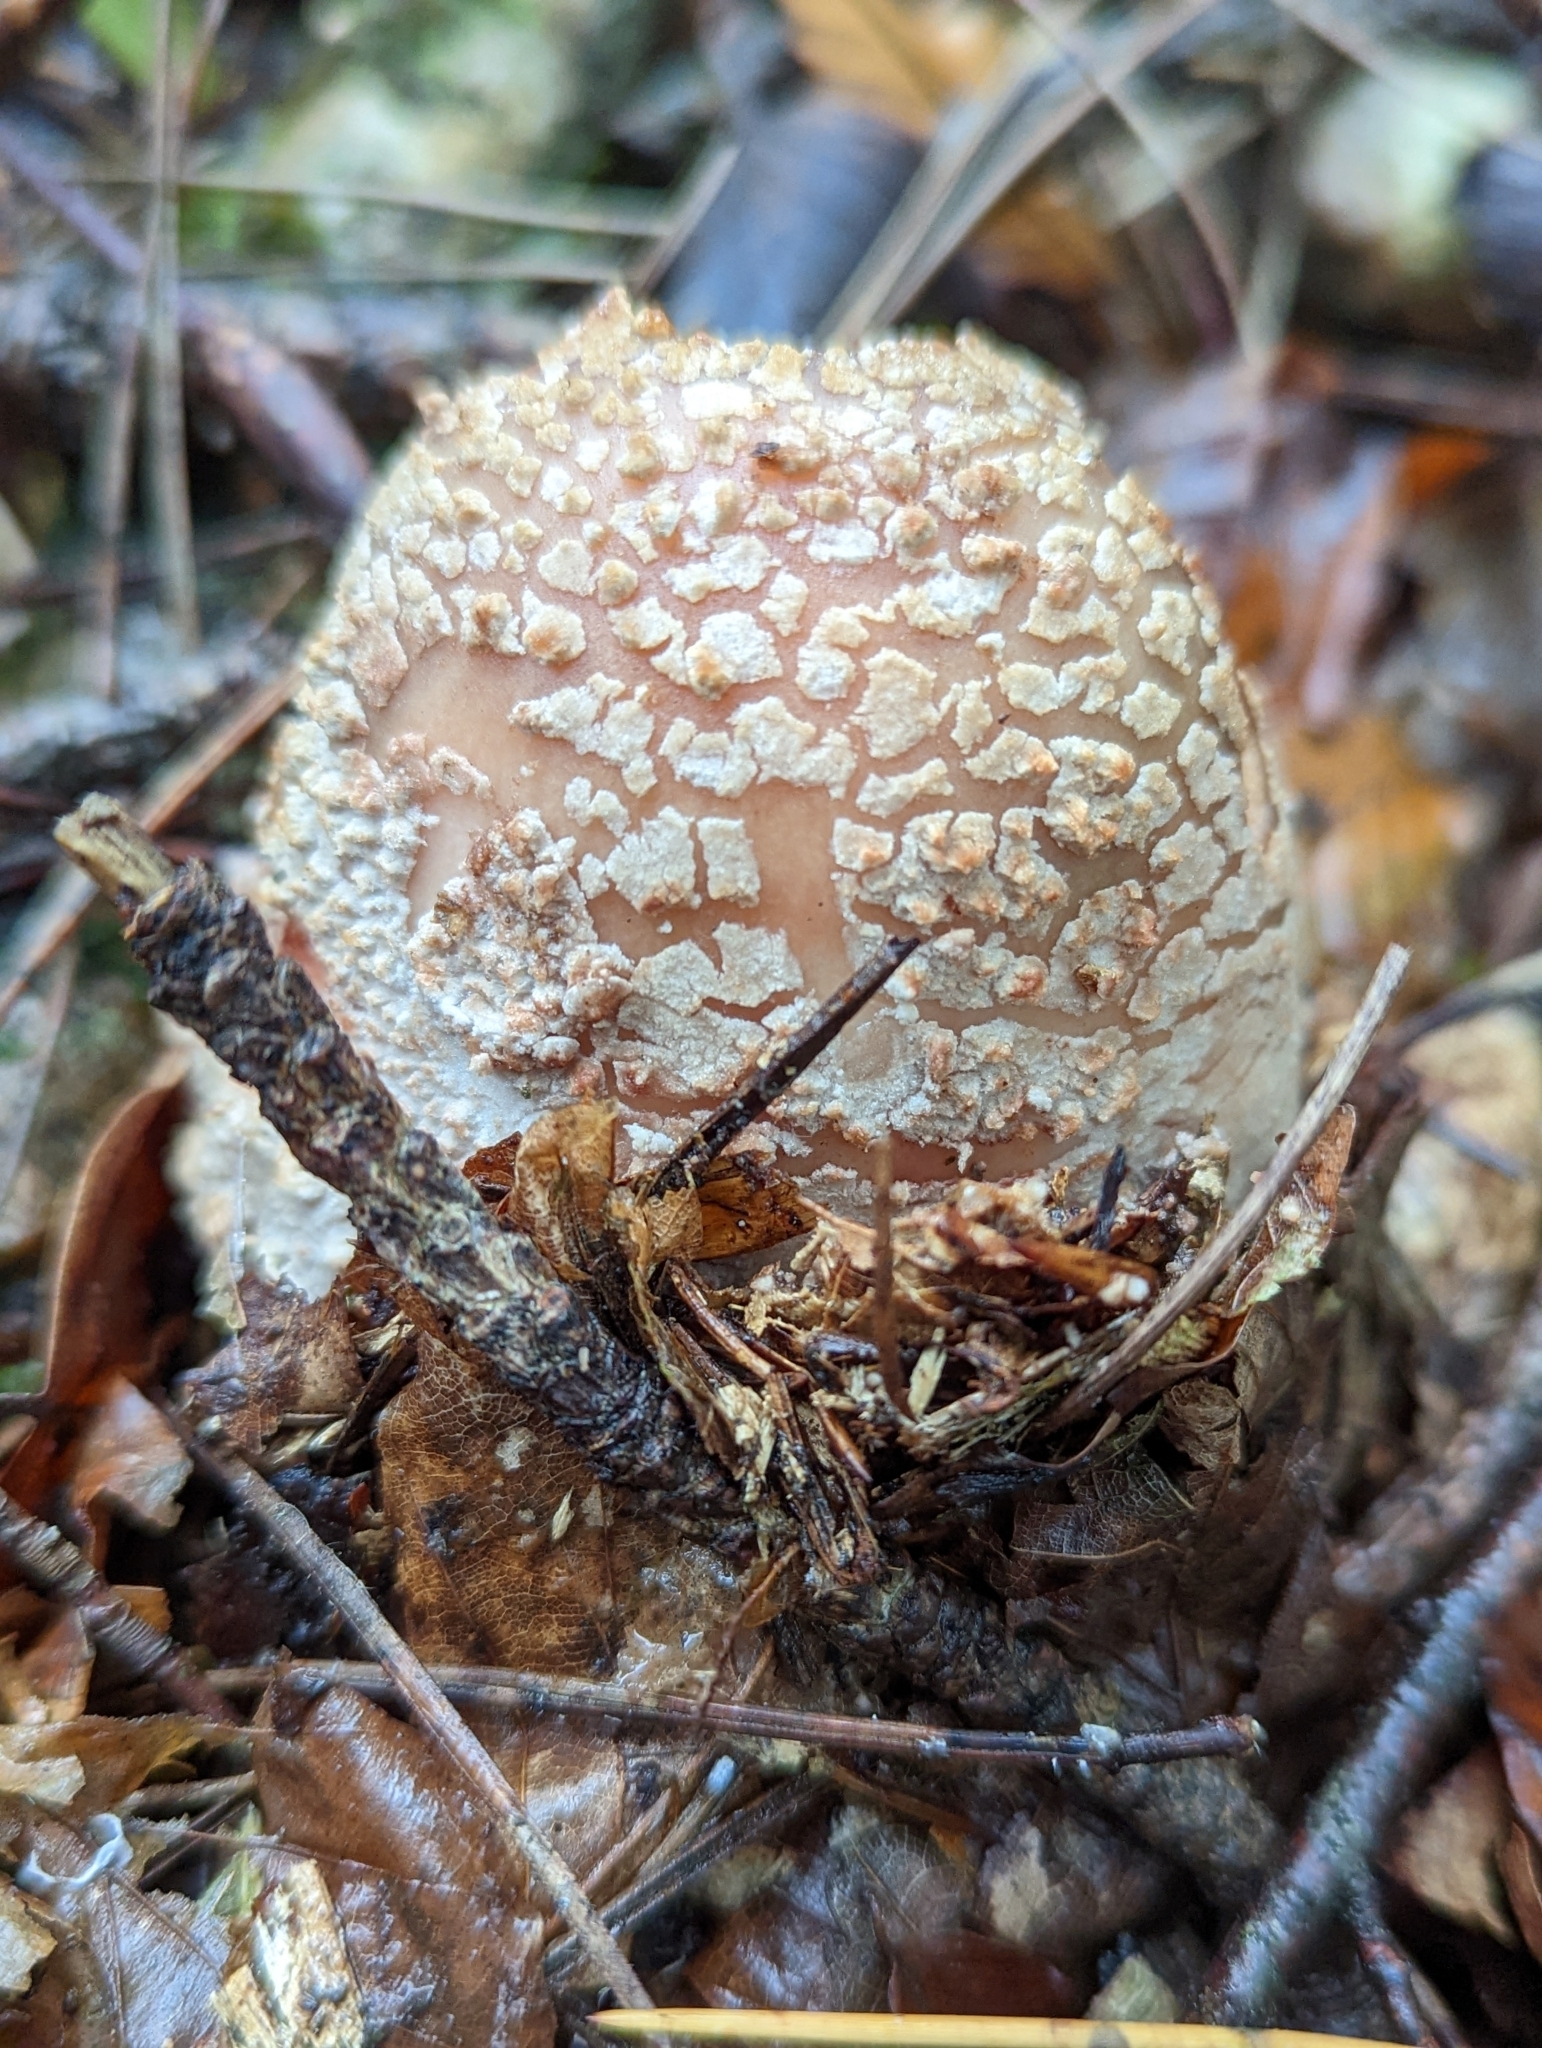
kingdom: Fungi
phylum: Basidiomycota
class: Agaricomycetes
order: Agaricales
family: Amanitaceae
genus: Amanita
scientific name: Amanita rubescens
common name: Blusher
